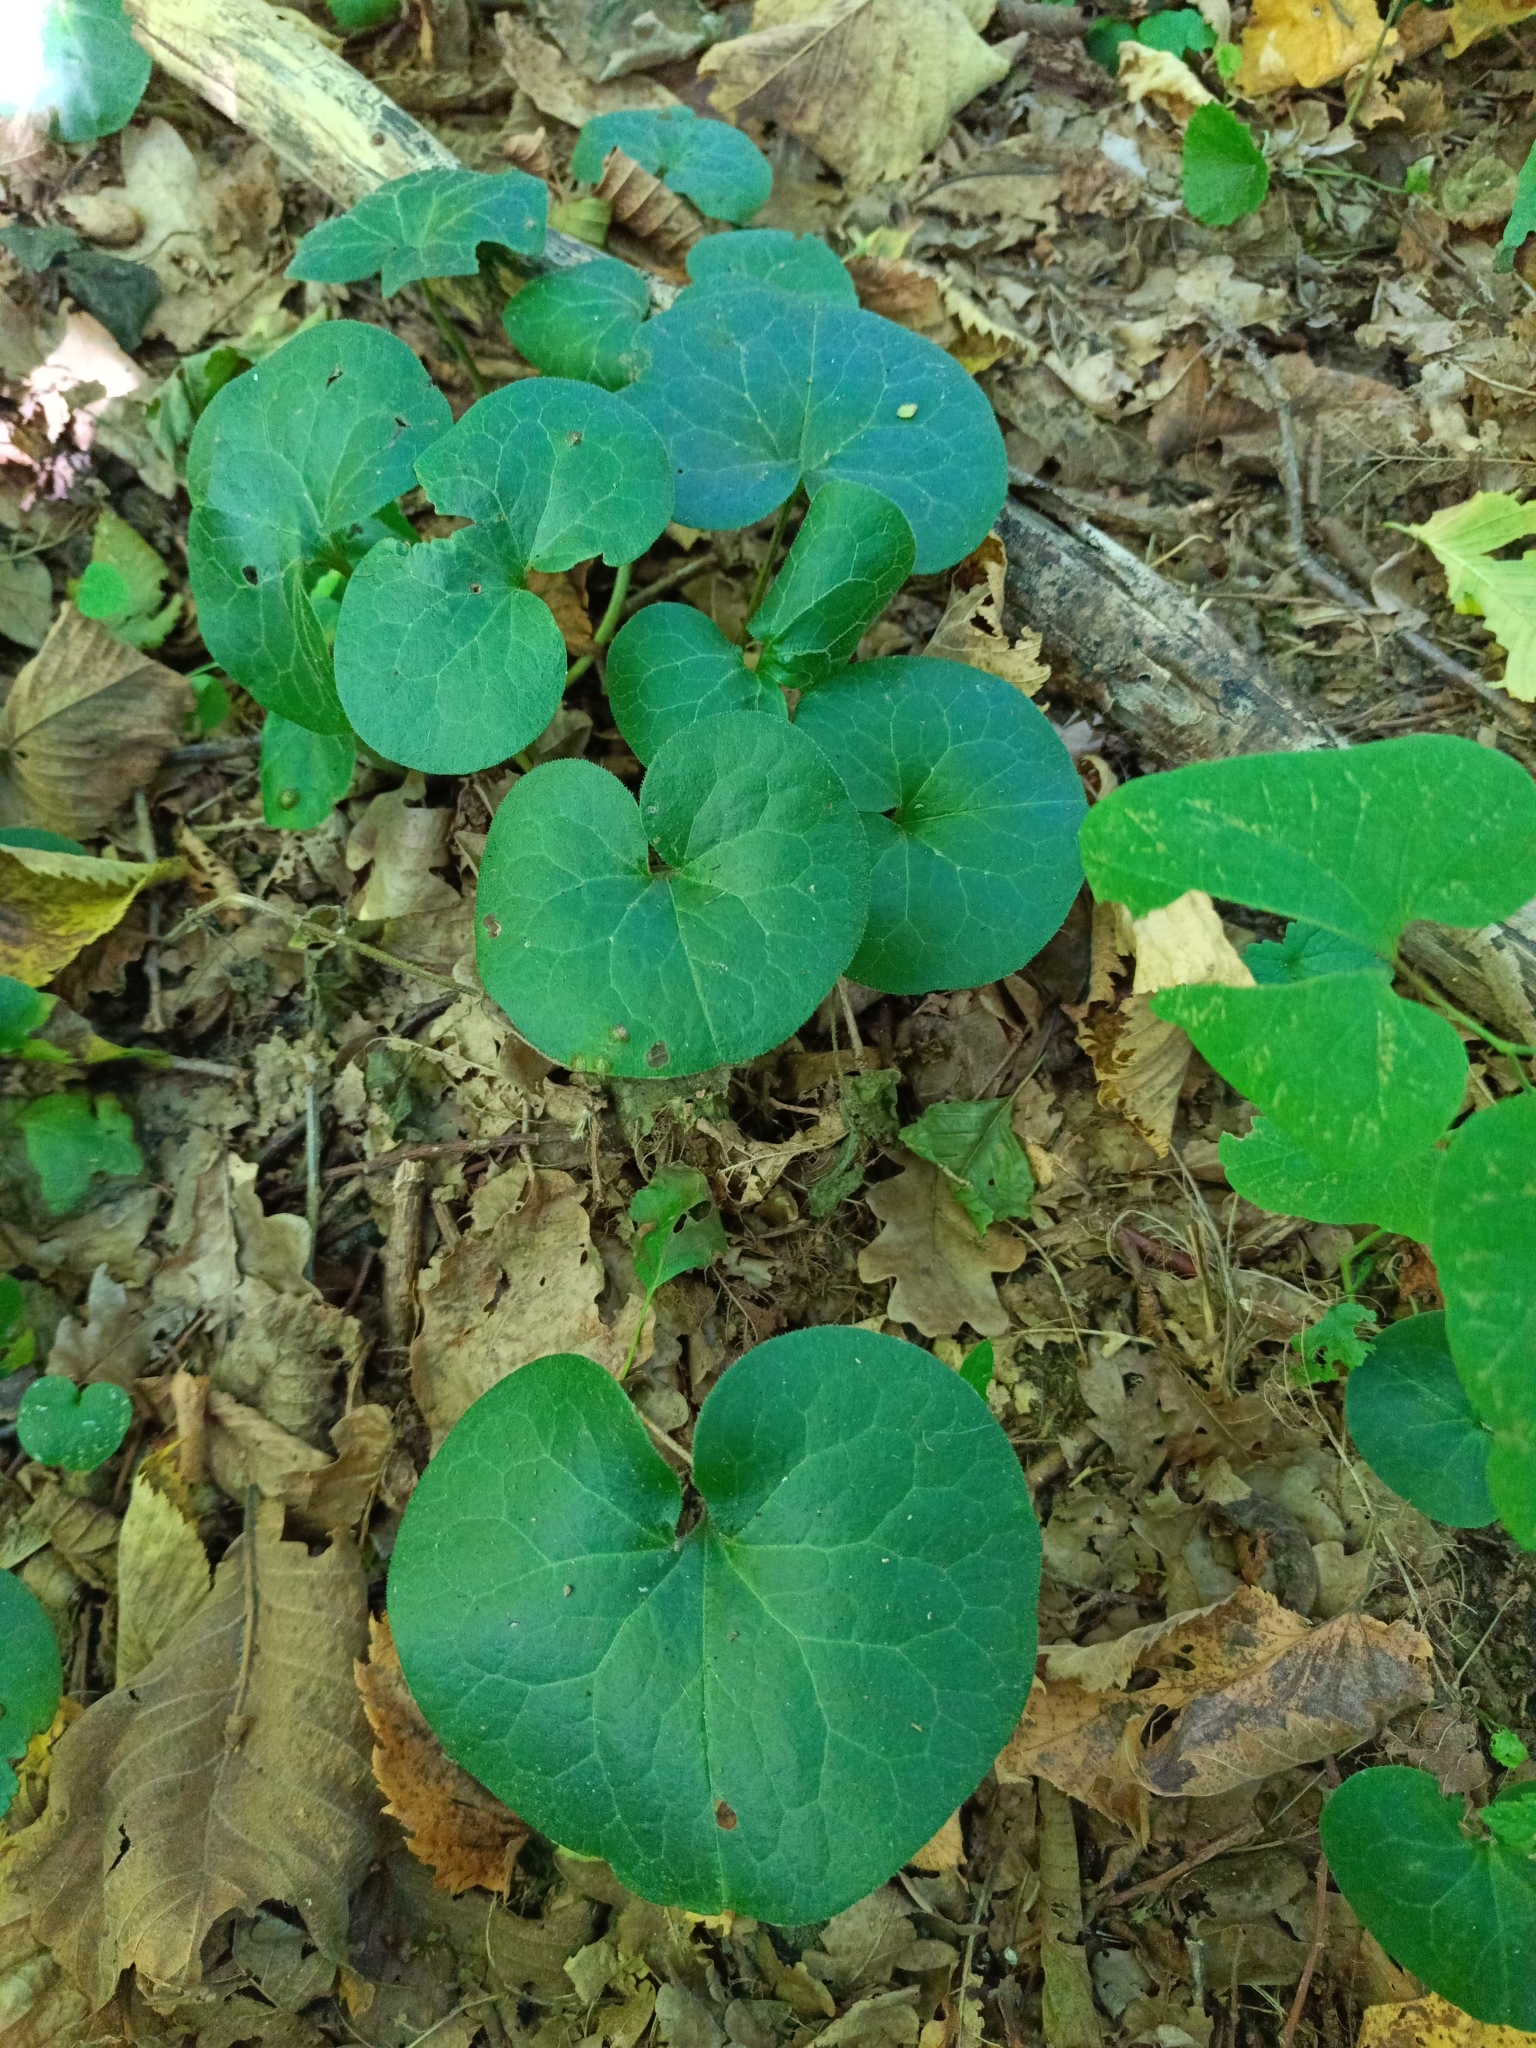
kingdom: Plantae
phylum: Tracheophyta
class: Magnoliopsida
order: Piperales
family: Aristolochiaceae
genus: Asarum
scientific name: Asarum europaeum
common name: Asarabacca
